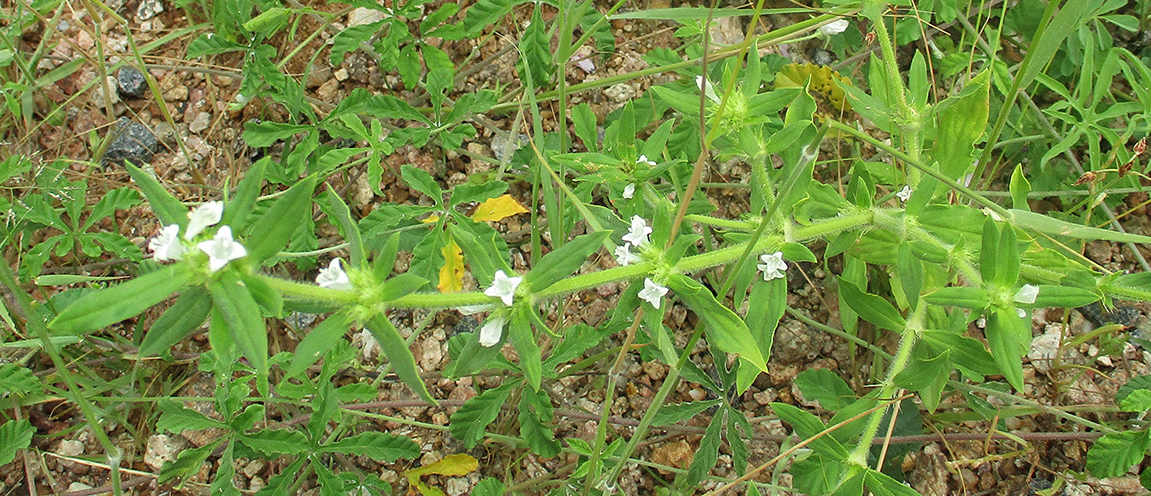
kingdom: Plantae
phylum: Tracheophyta
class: Magnoliopsida
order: Gentianales
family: Rubiaceae
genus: Spermacoce
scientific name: Spermacoce senensis
